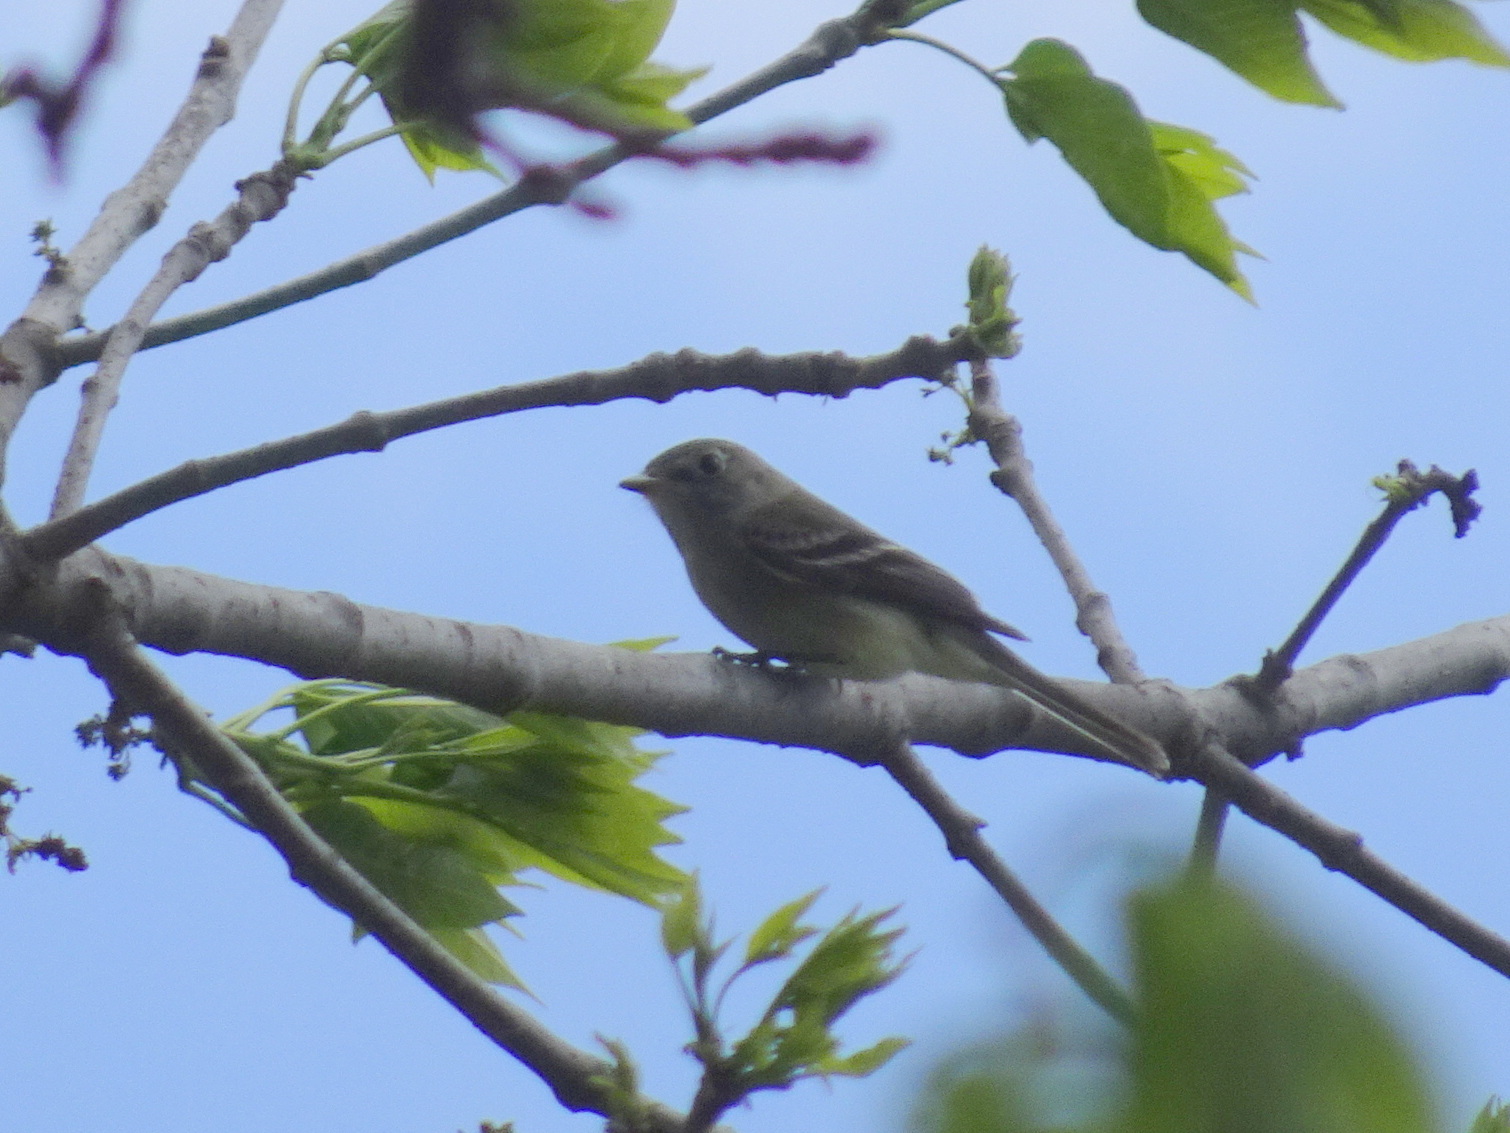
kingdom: Animalia
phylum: Chordata
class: Aves
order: Passeriformes
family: Tyrannidae
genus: Empidonax
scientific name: Empidonax minimus
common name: Least flycatcher
